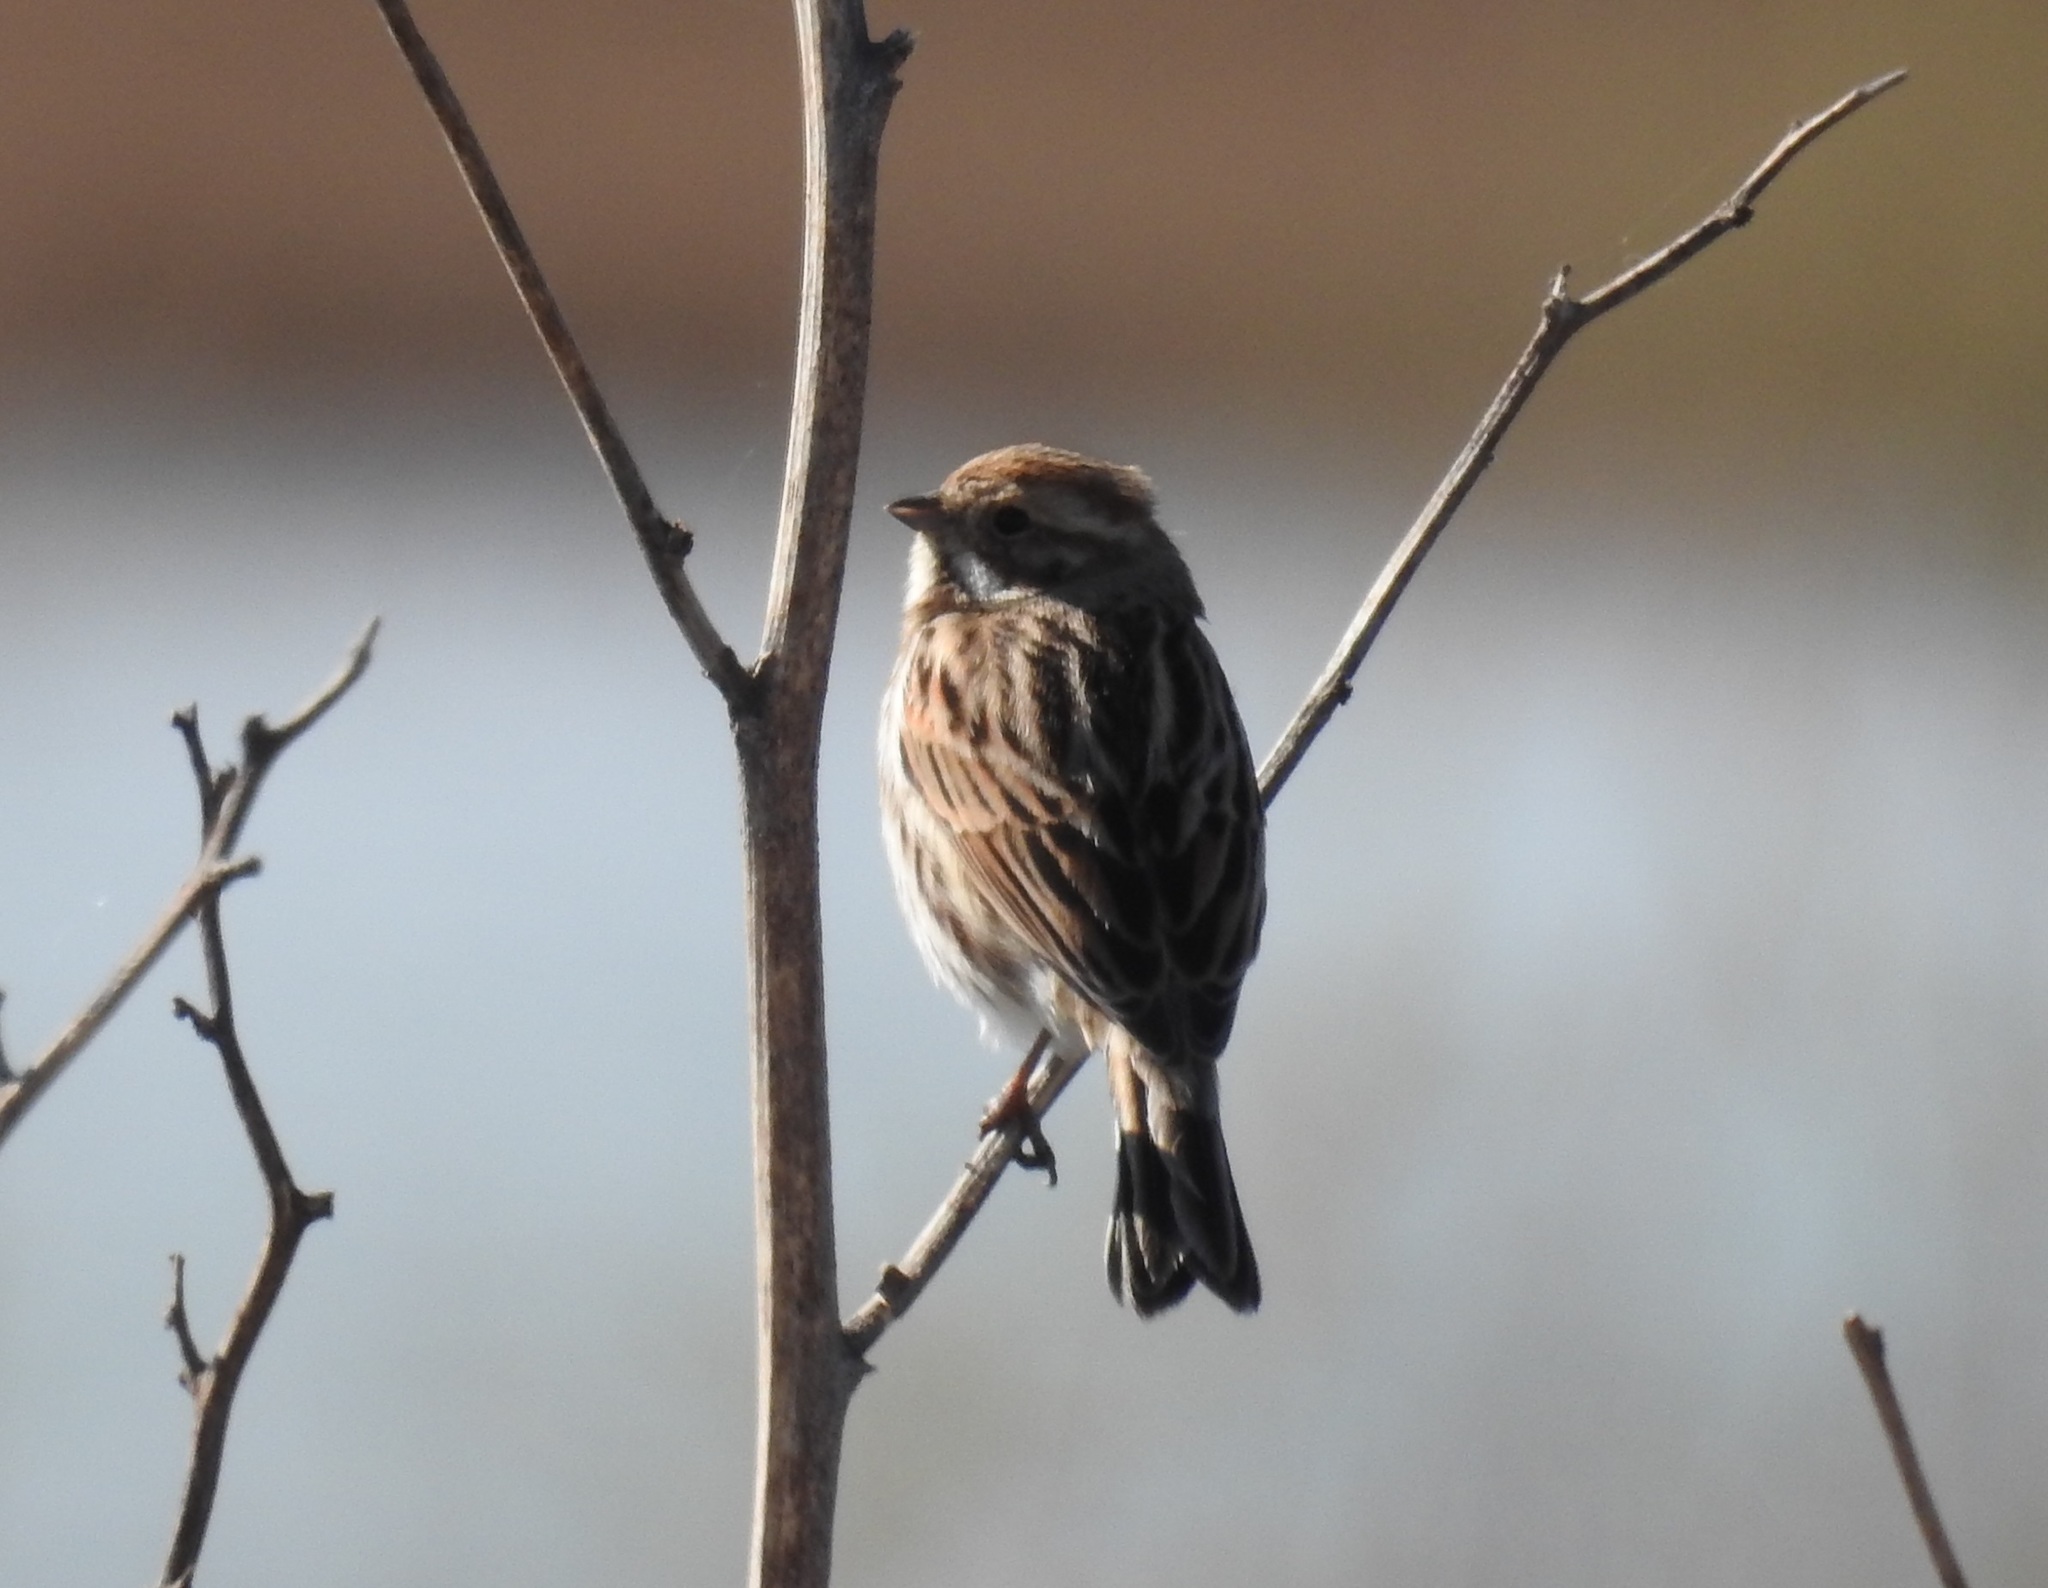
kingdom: Animalia
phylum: Chordata
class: Aves
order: Passeriformes
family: Emberizidae
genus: Emberiza
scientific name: Emberiza schoeniclus
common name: Reed bunting
